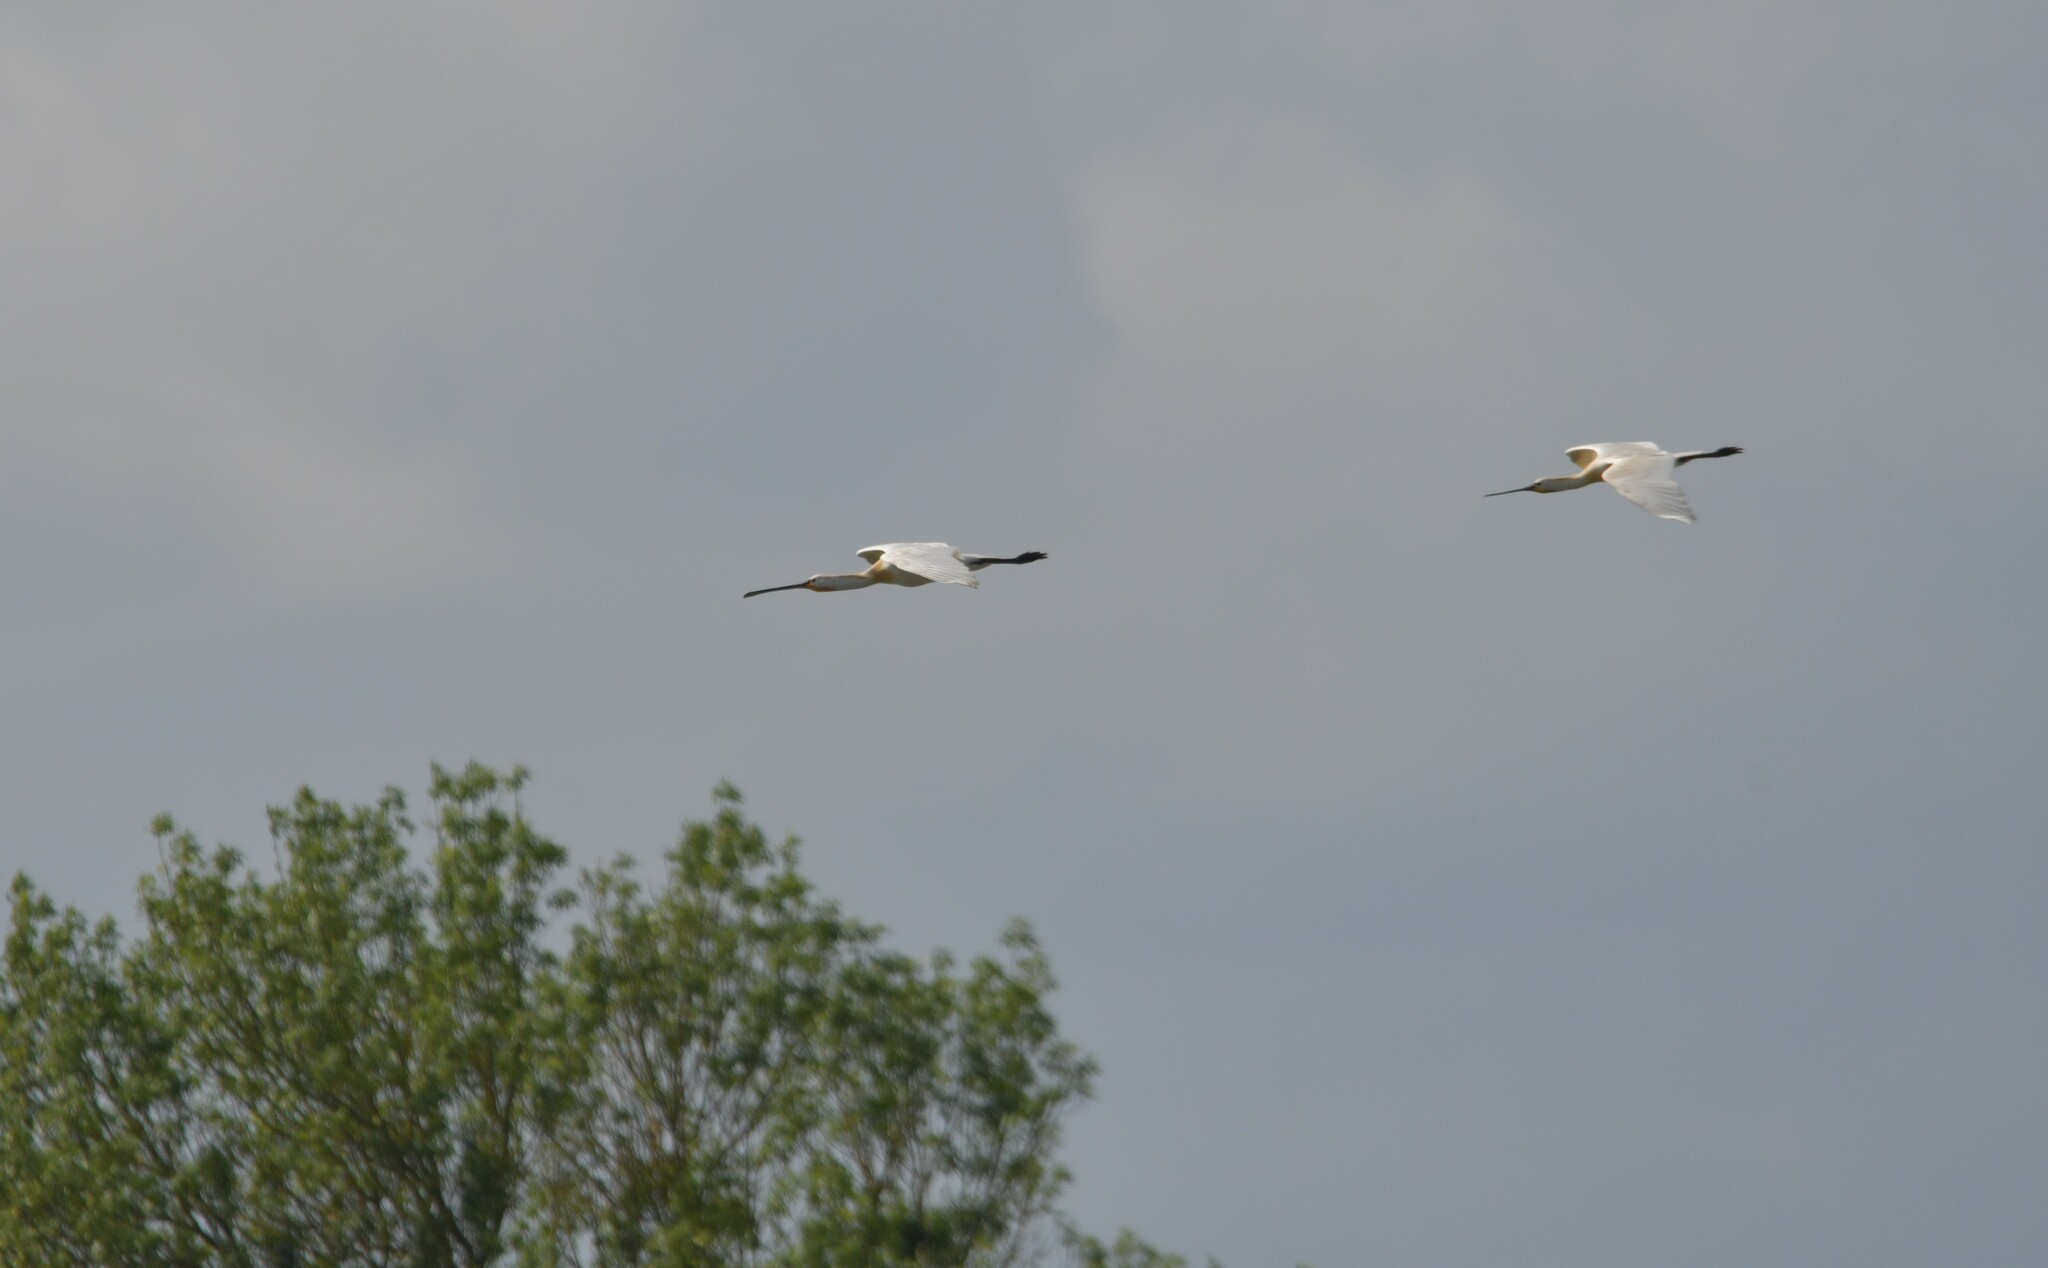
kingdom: Animalia
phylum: Chordata
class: Aves
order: Pelecaniformes
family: Threskiornithidae
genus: Platalea
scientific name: Platalea leucorodia
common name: Eurasian spoonbill
